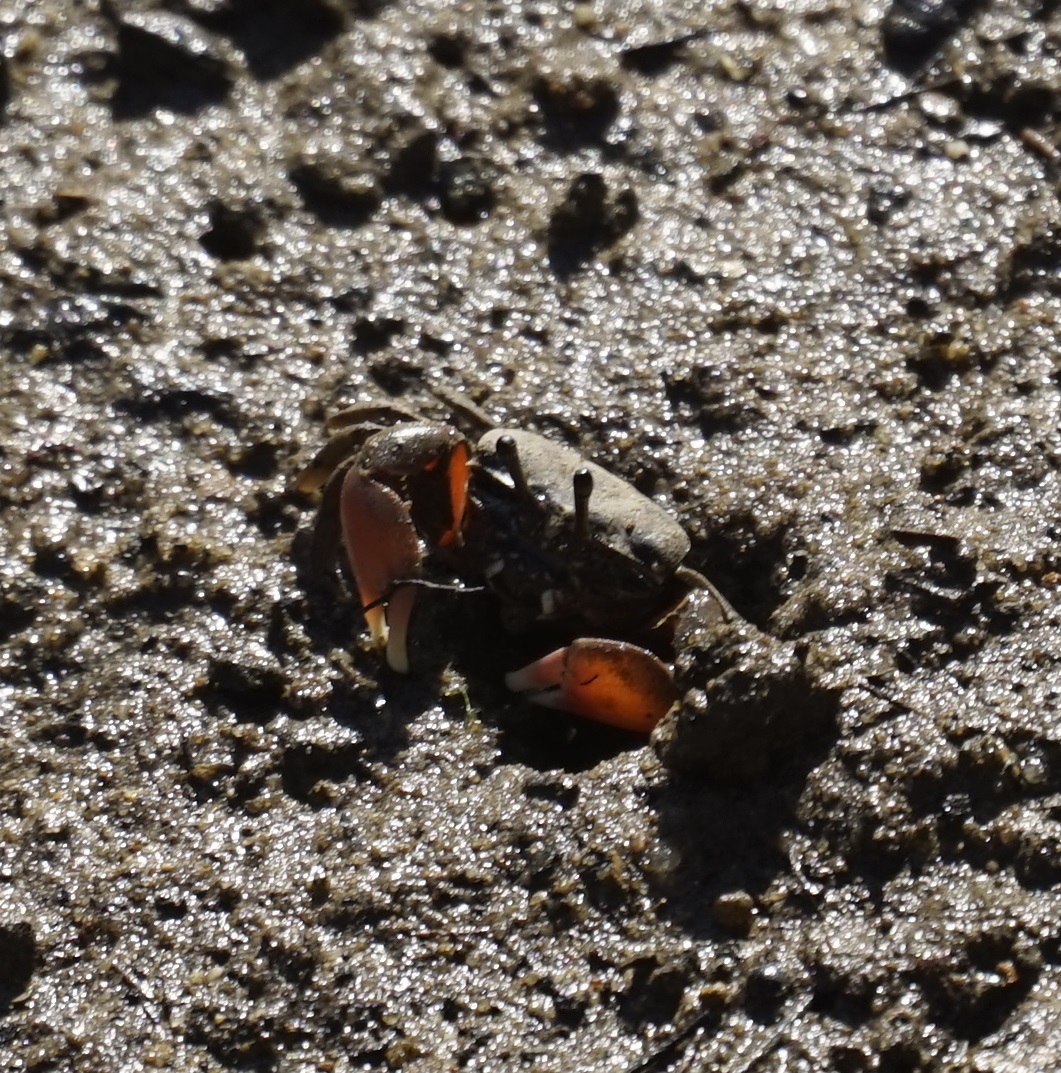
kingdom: Animalia
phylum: Arthropoda
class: Malacostraca
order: Decapoda
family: Heloeciidae
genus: Heloecius
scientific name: Heloecius cordiformis
